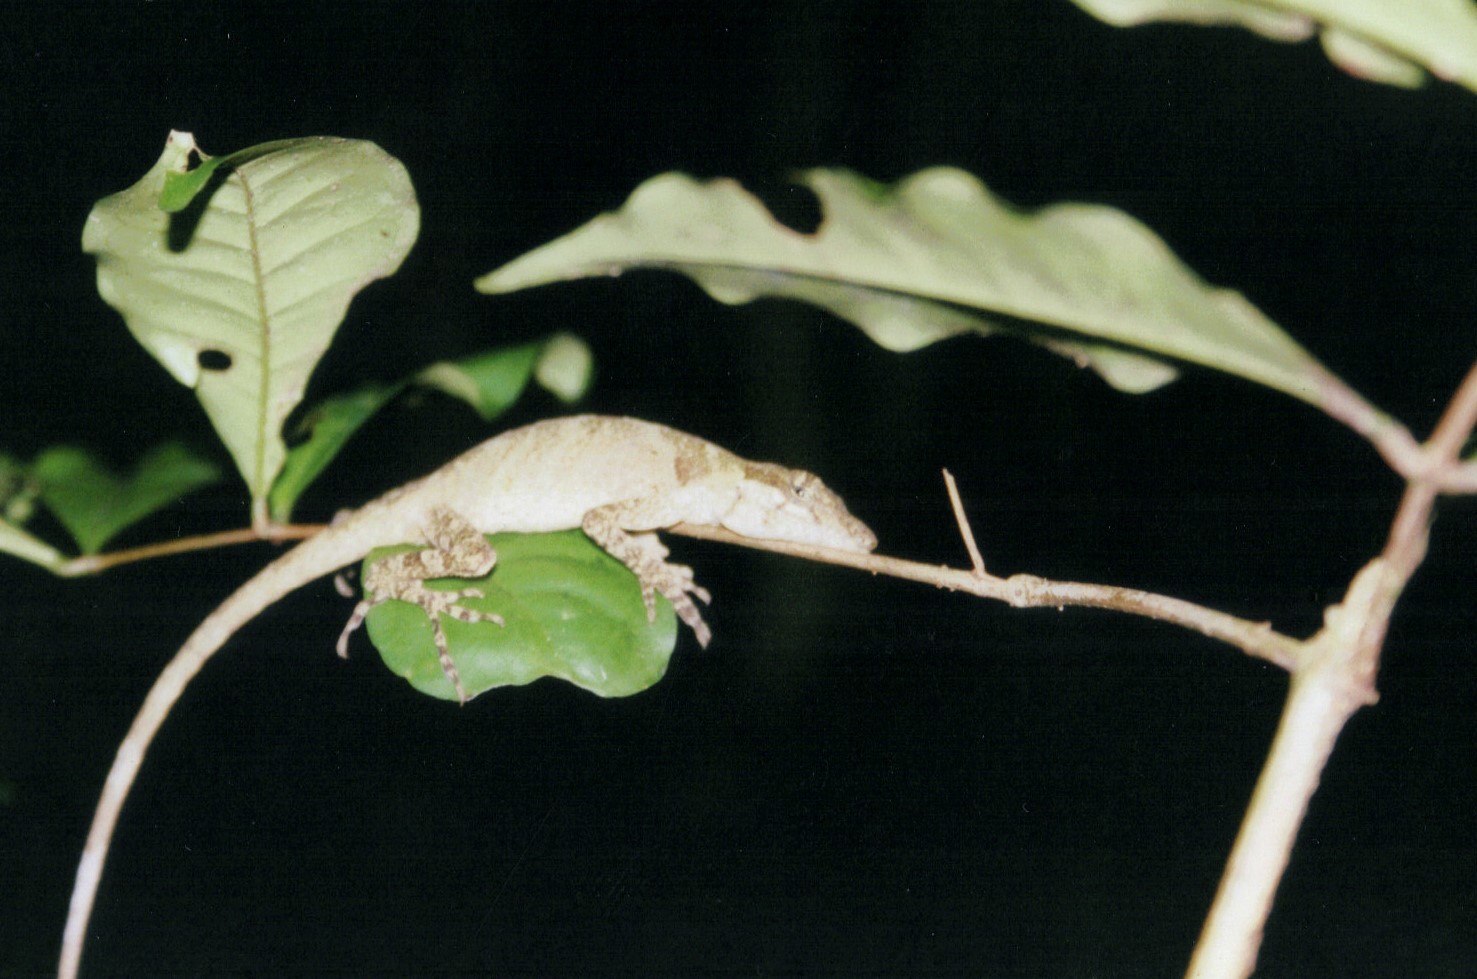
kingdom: Animalia
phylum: Chordata
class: Squamata
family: Dactyloidae
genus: Anolis
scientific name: Anolis lemurinus
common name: Ghost anole
